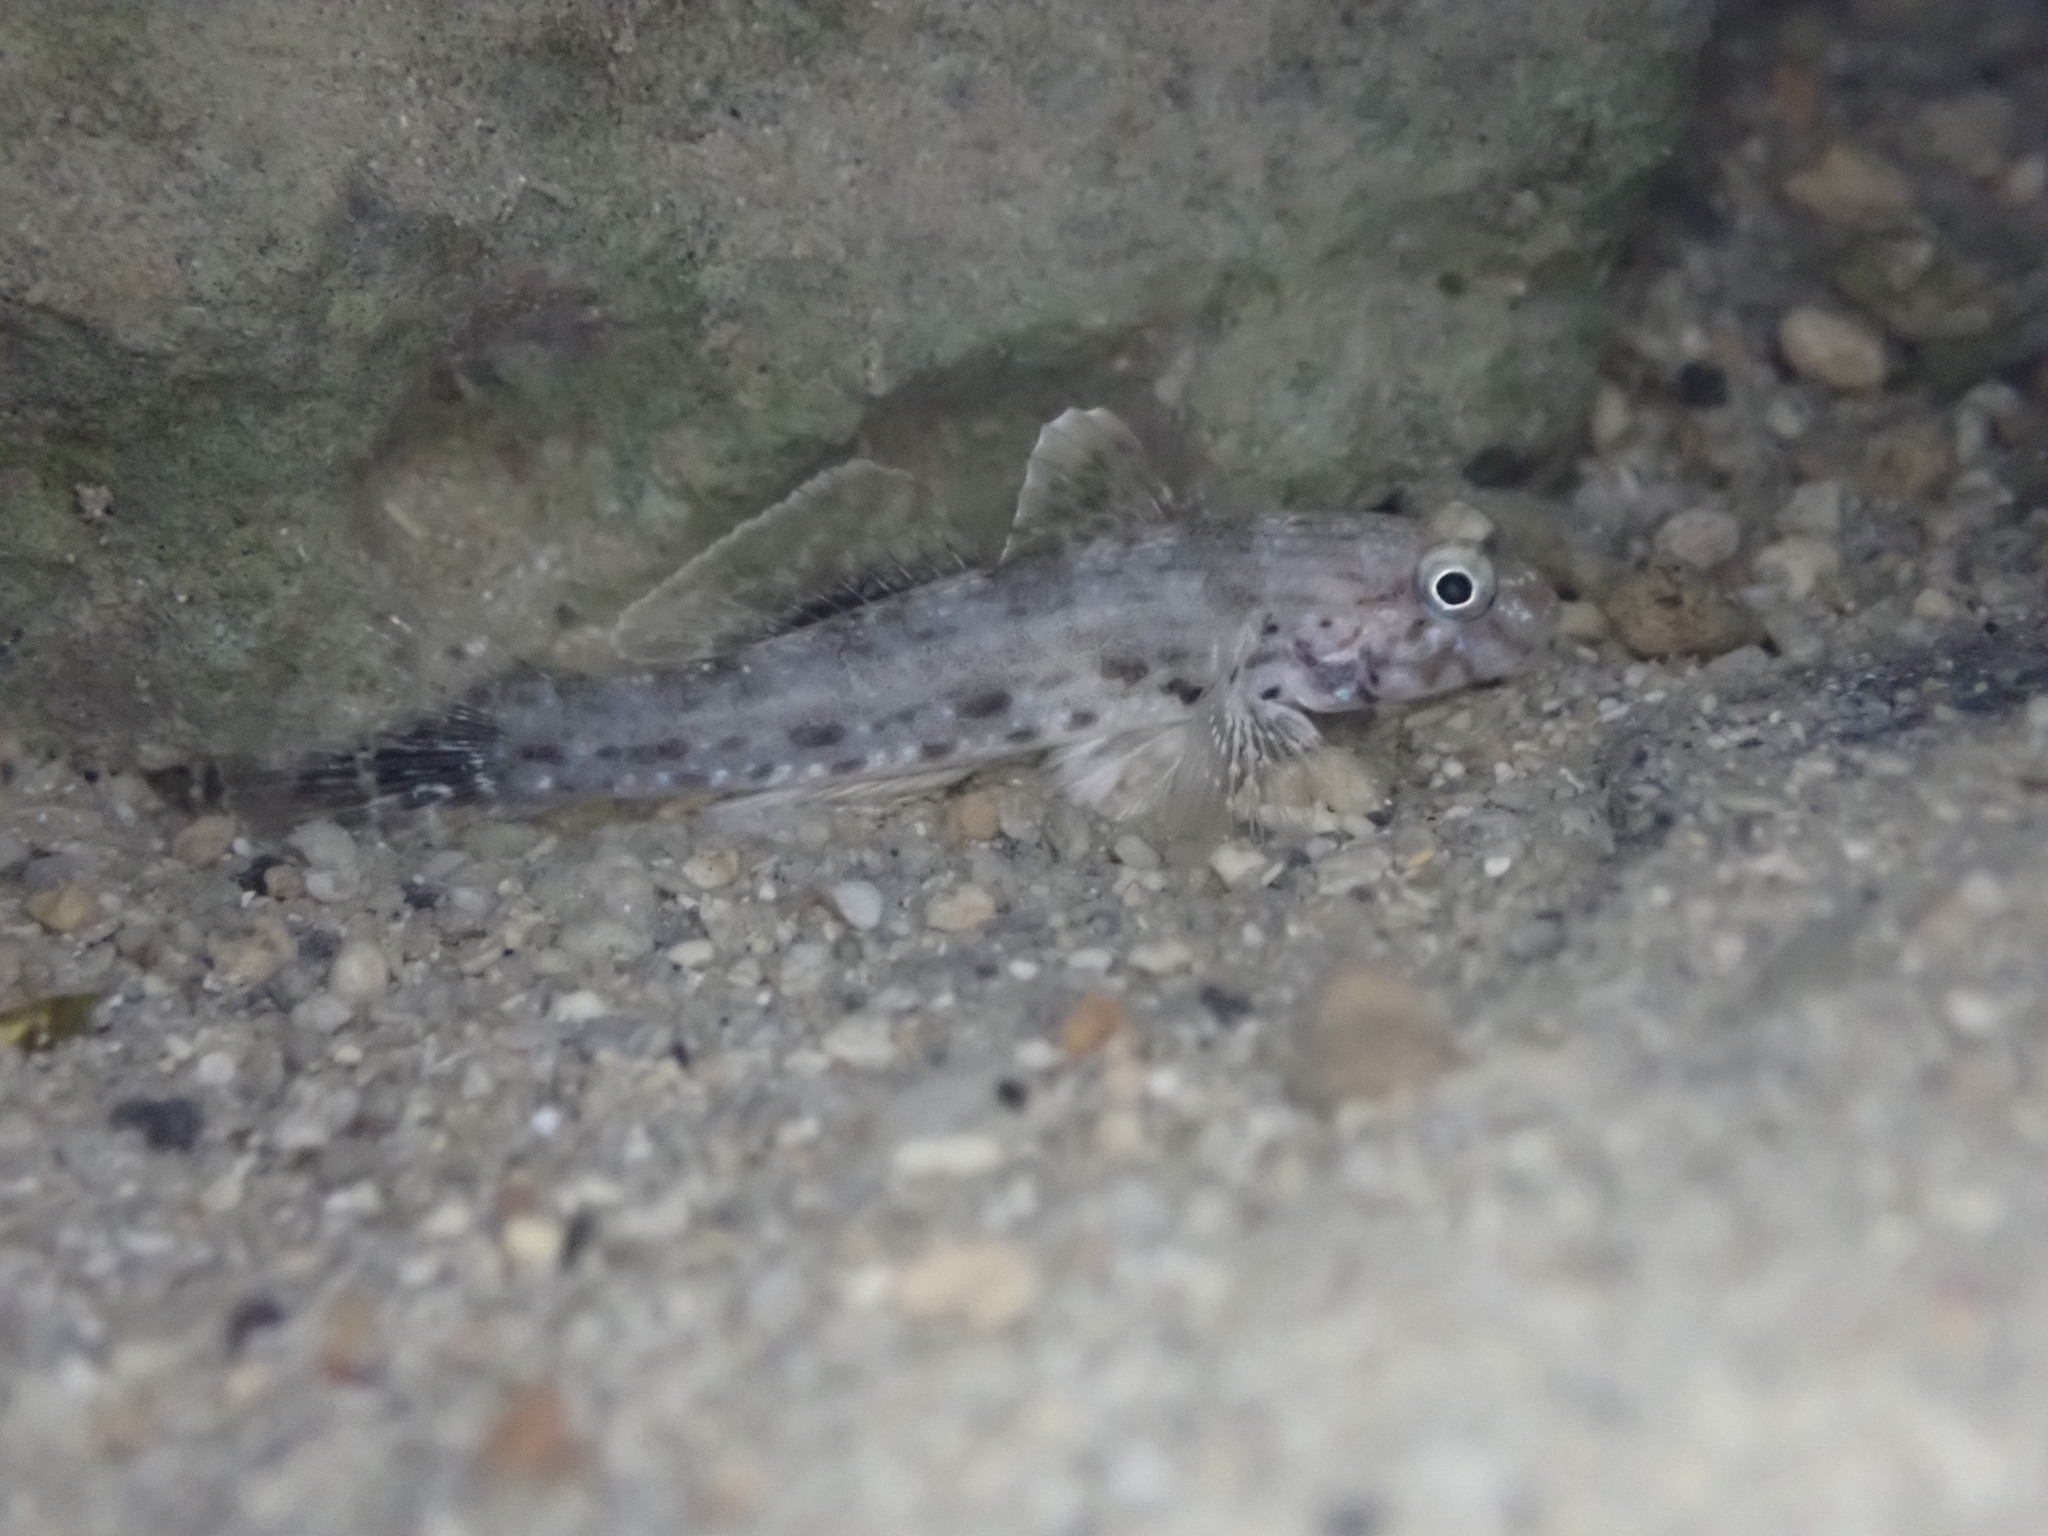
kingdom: Animalia
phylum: Chordata
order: Perciformes
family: Gobiidae
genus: Istigobius
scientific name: Istigobius ornatus
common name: Ornate goby
